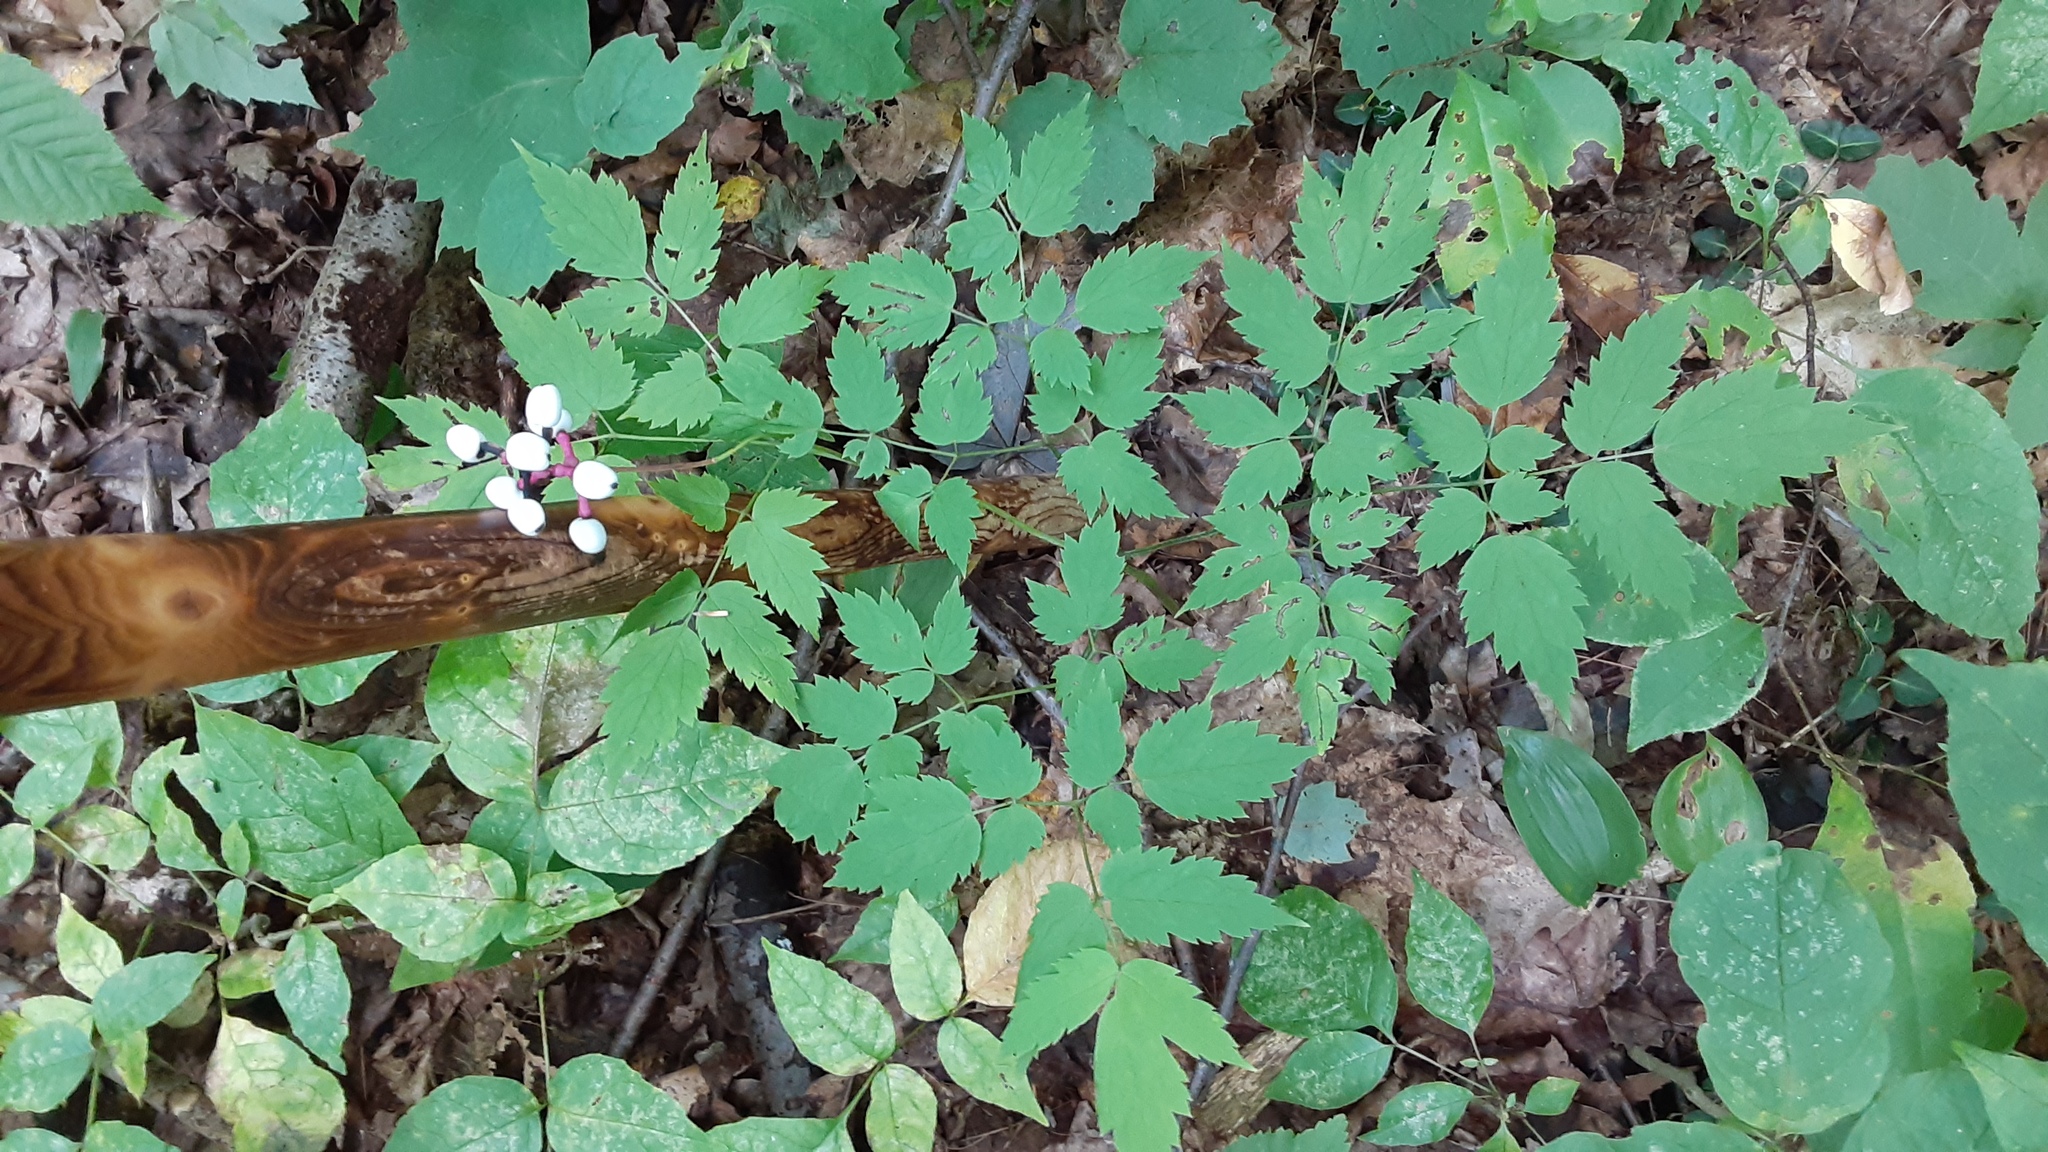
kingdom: Plantae
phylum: Tracheophyta
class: Magnoliopsida
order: Ranunculales
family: Ranunculaceae
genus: Actaea
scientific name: Actaea pachypoda
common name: Doll's-eyes
